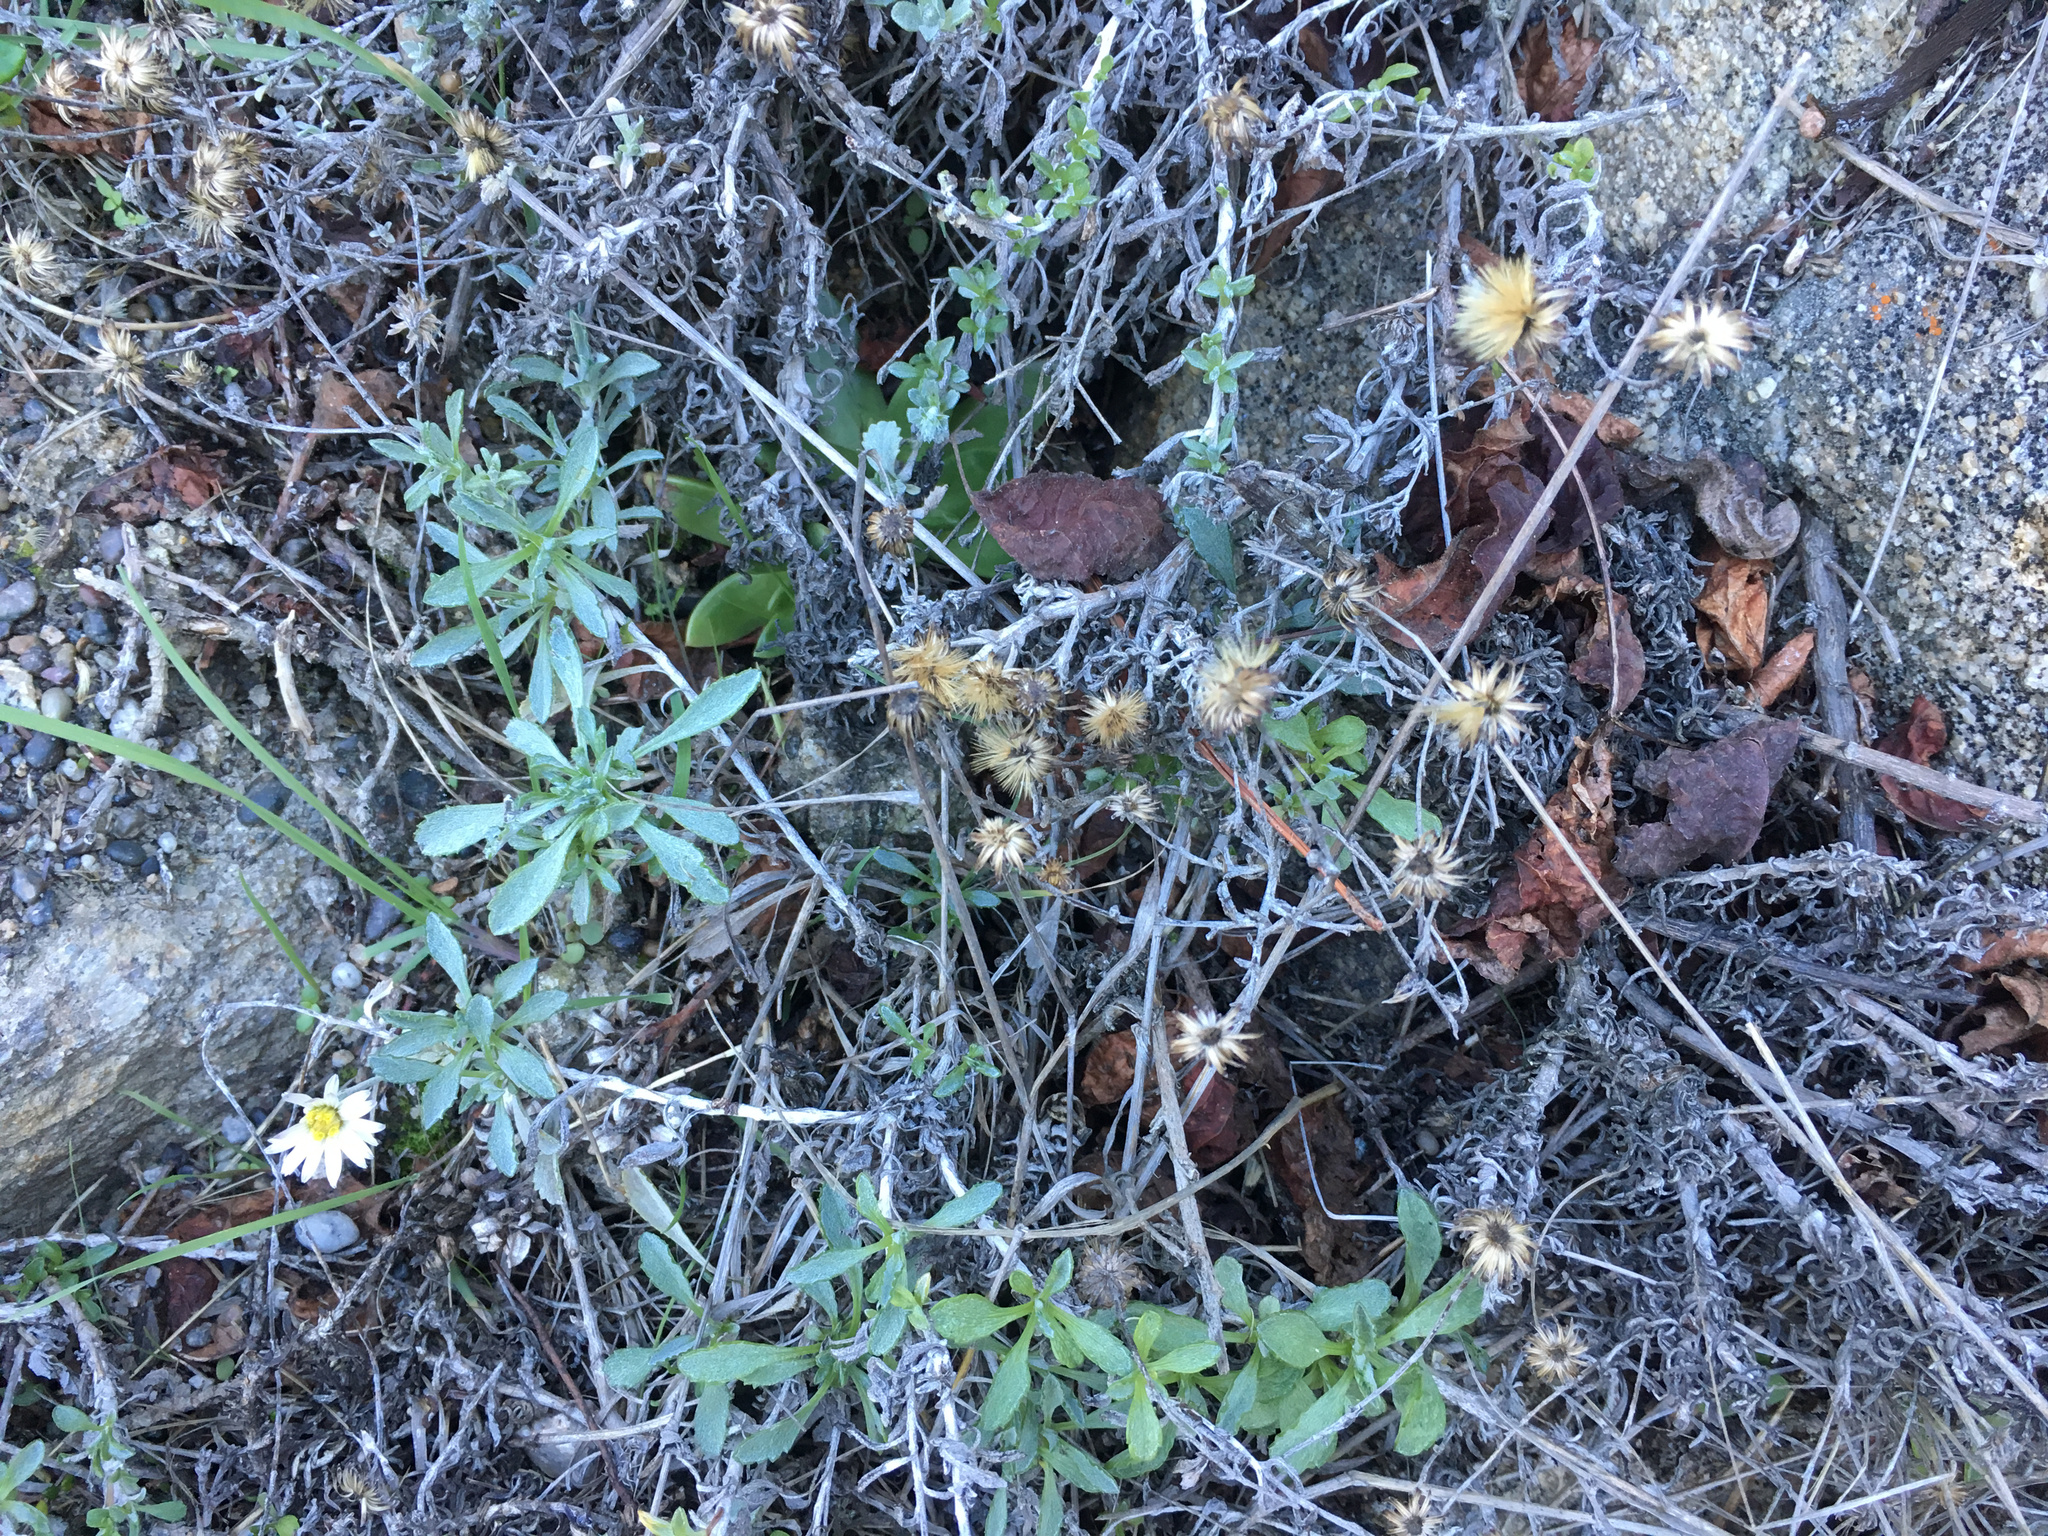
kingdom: Plantae
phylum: Tracheophyta
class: Magnoliopsida
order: Asterales
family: Asteraceae
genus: Corethrogyne
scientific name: Corethrogyne filaginifolia
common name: Sand-aster
